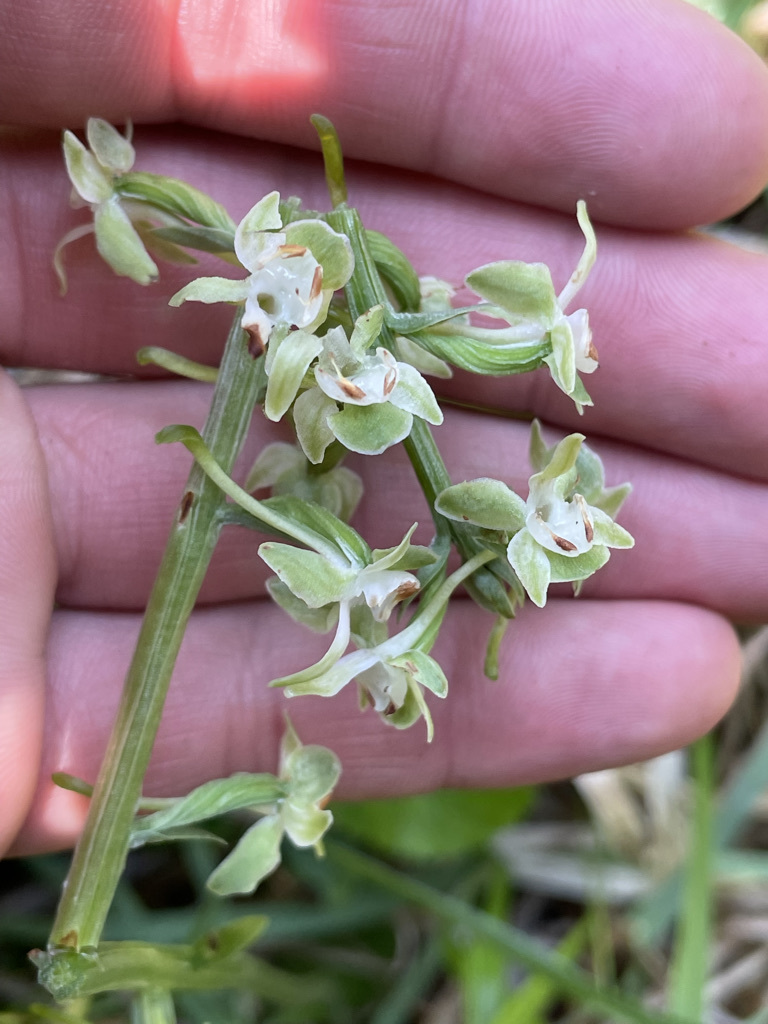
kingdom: Plantae
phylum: Tracheophyta
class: Liliopsida
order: Asparagales
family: Orchidaceae
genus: Platanthera
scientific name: Platanthera orbiculata
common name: Large round-leaved orchid
